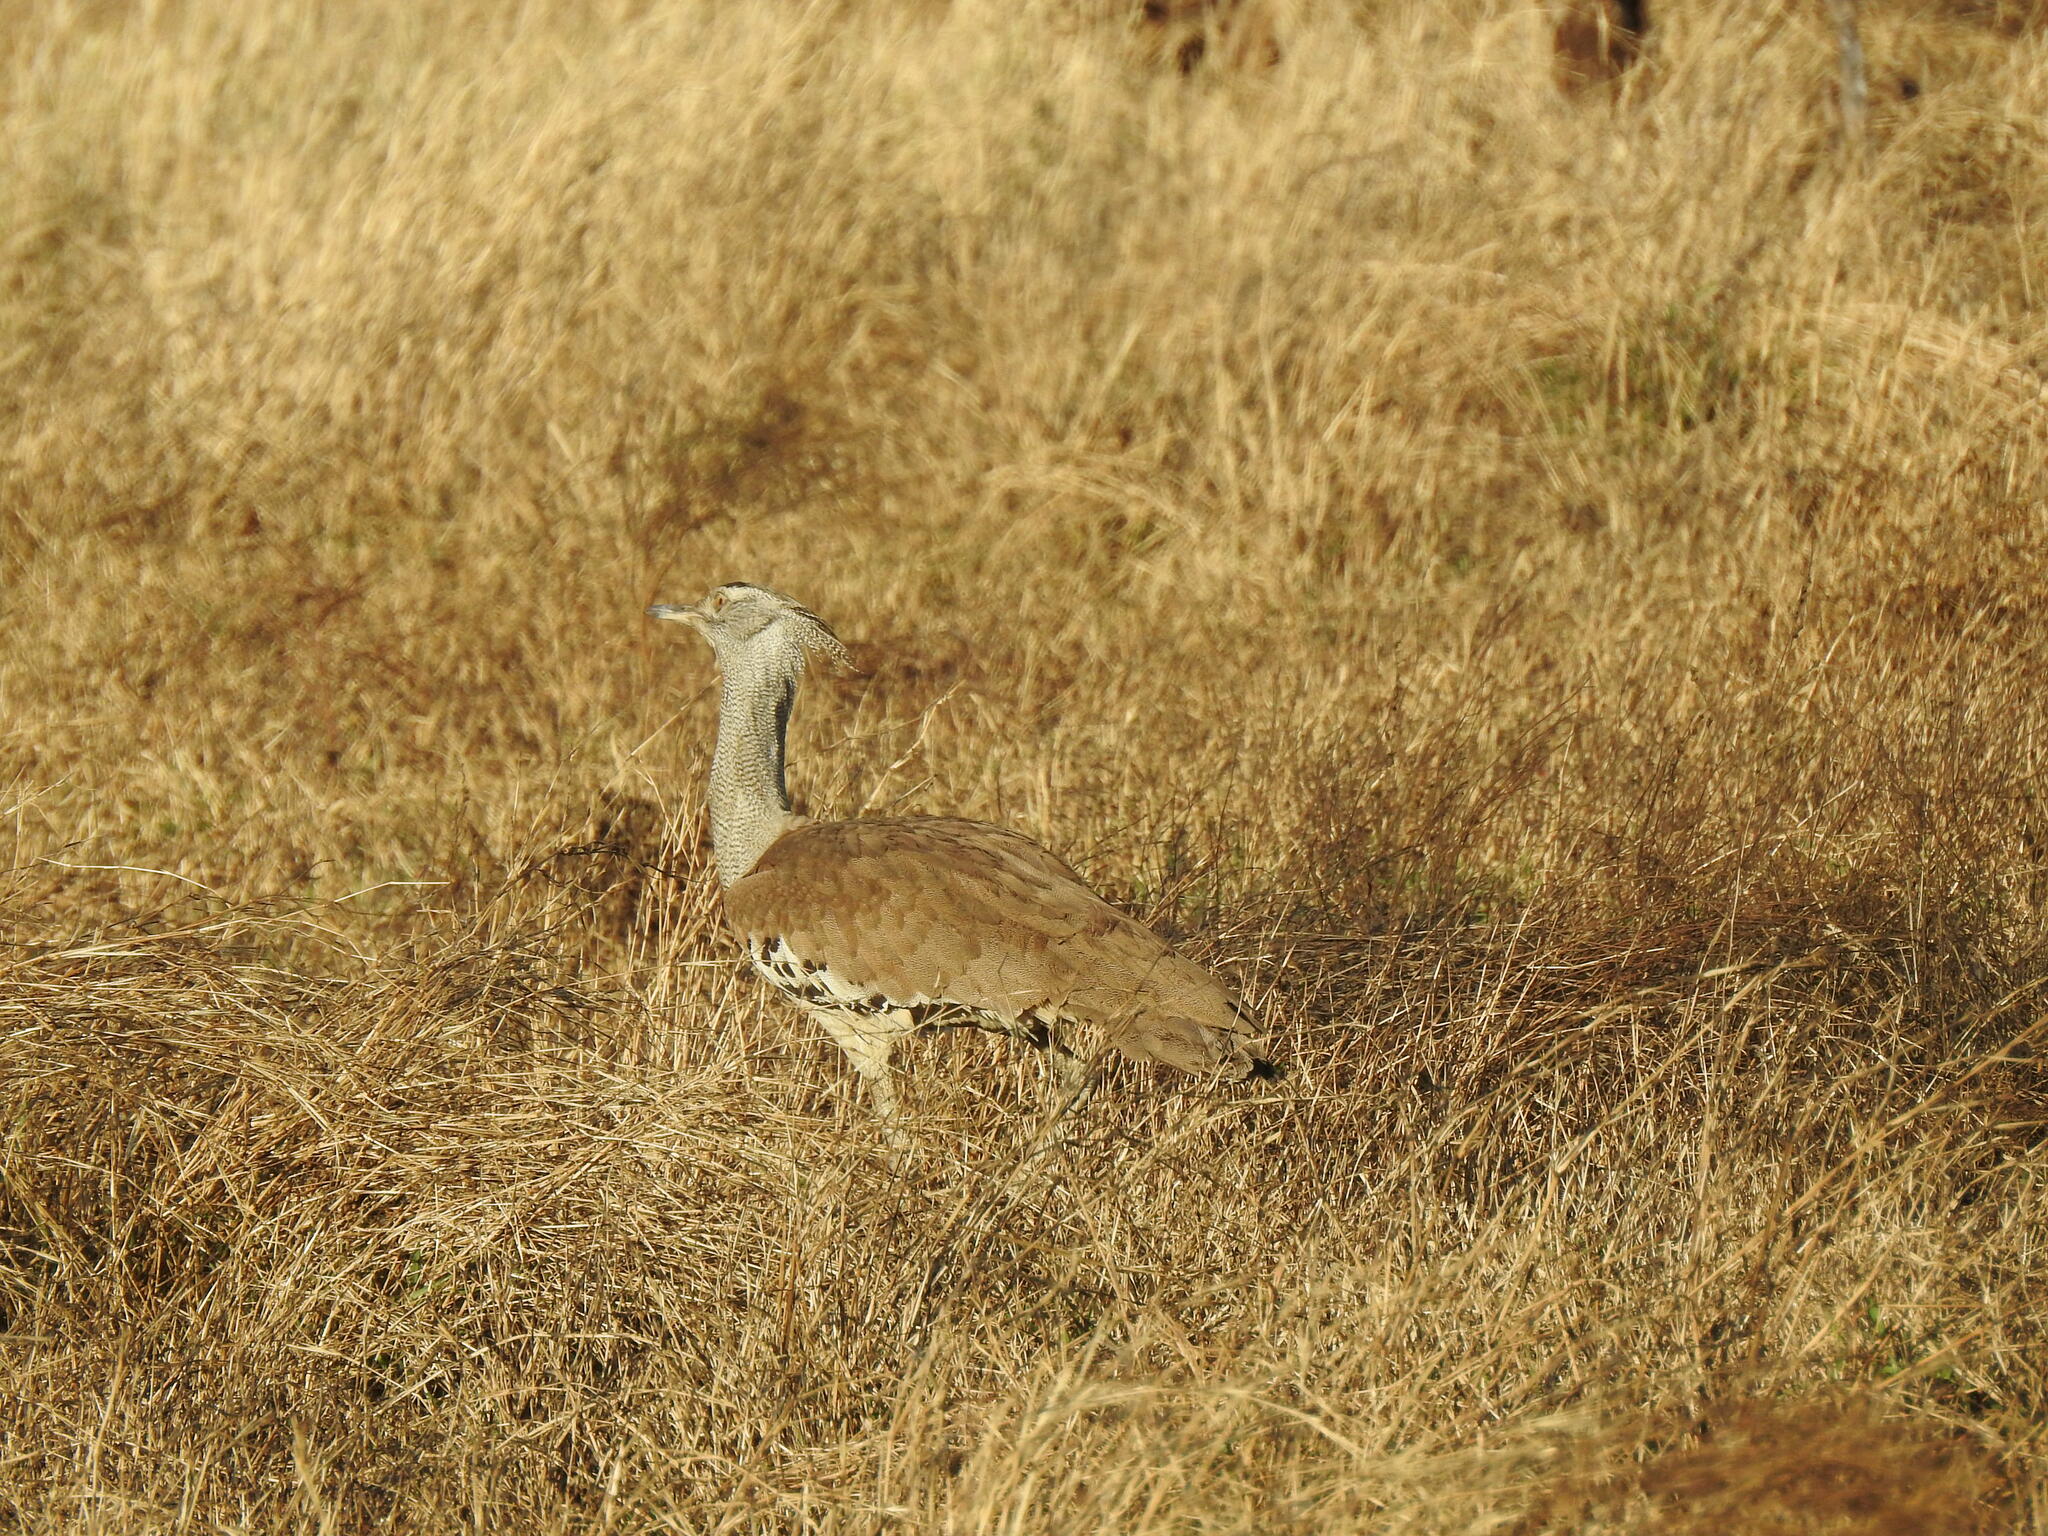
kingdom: Animalia
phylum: Chordata
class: Aves
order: Otidiformes
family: Otididae
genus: Ardeotis
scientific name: Ardeotis kori
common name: Kori bustard
